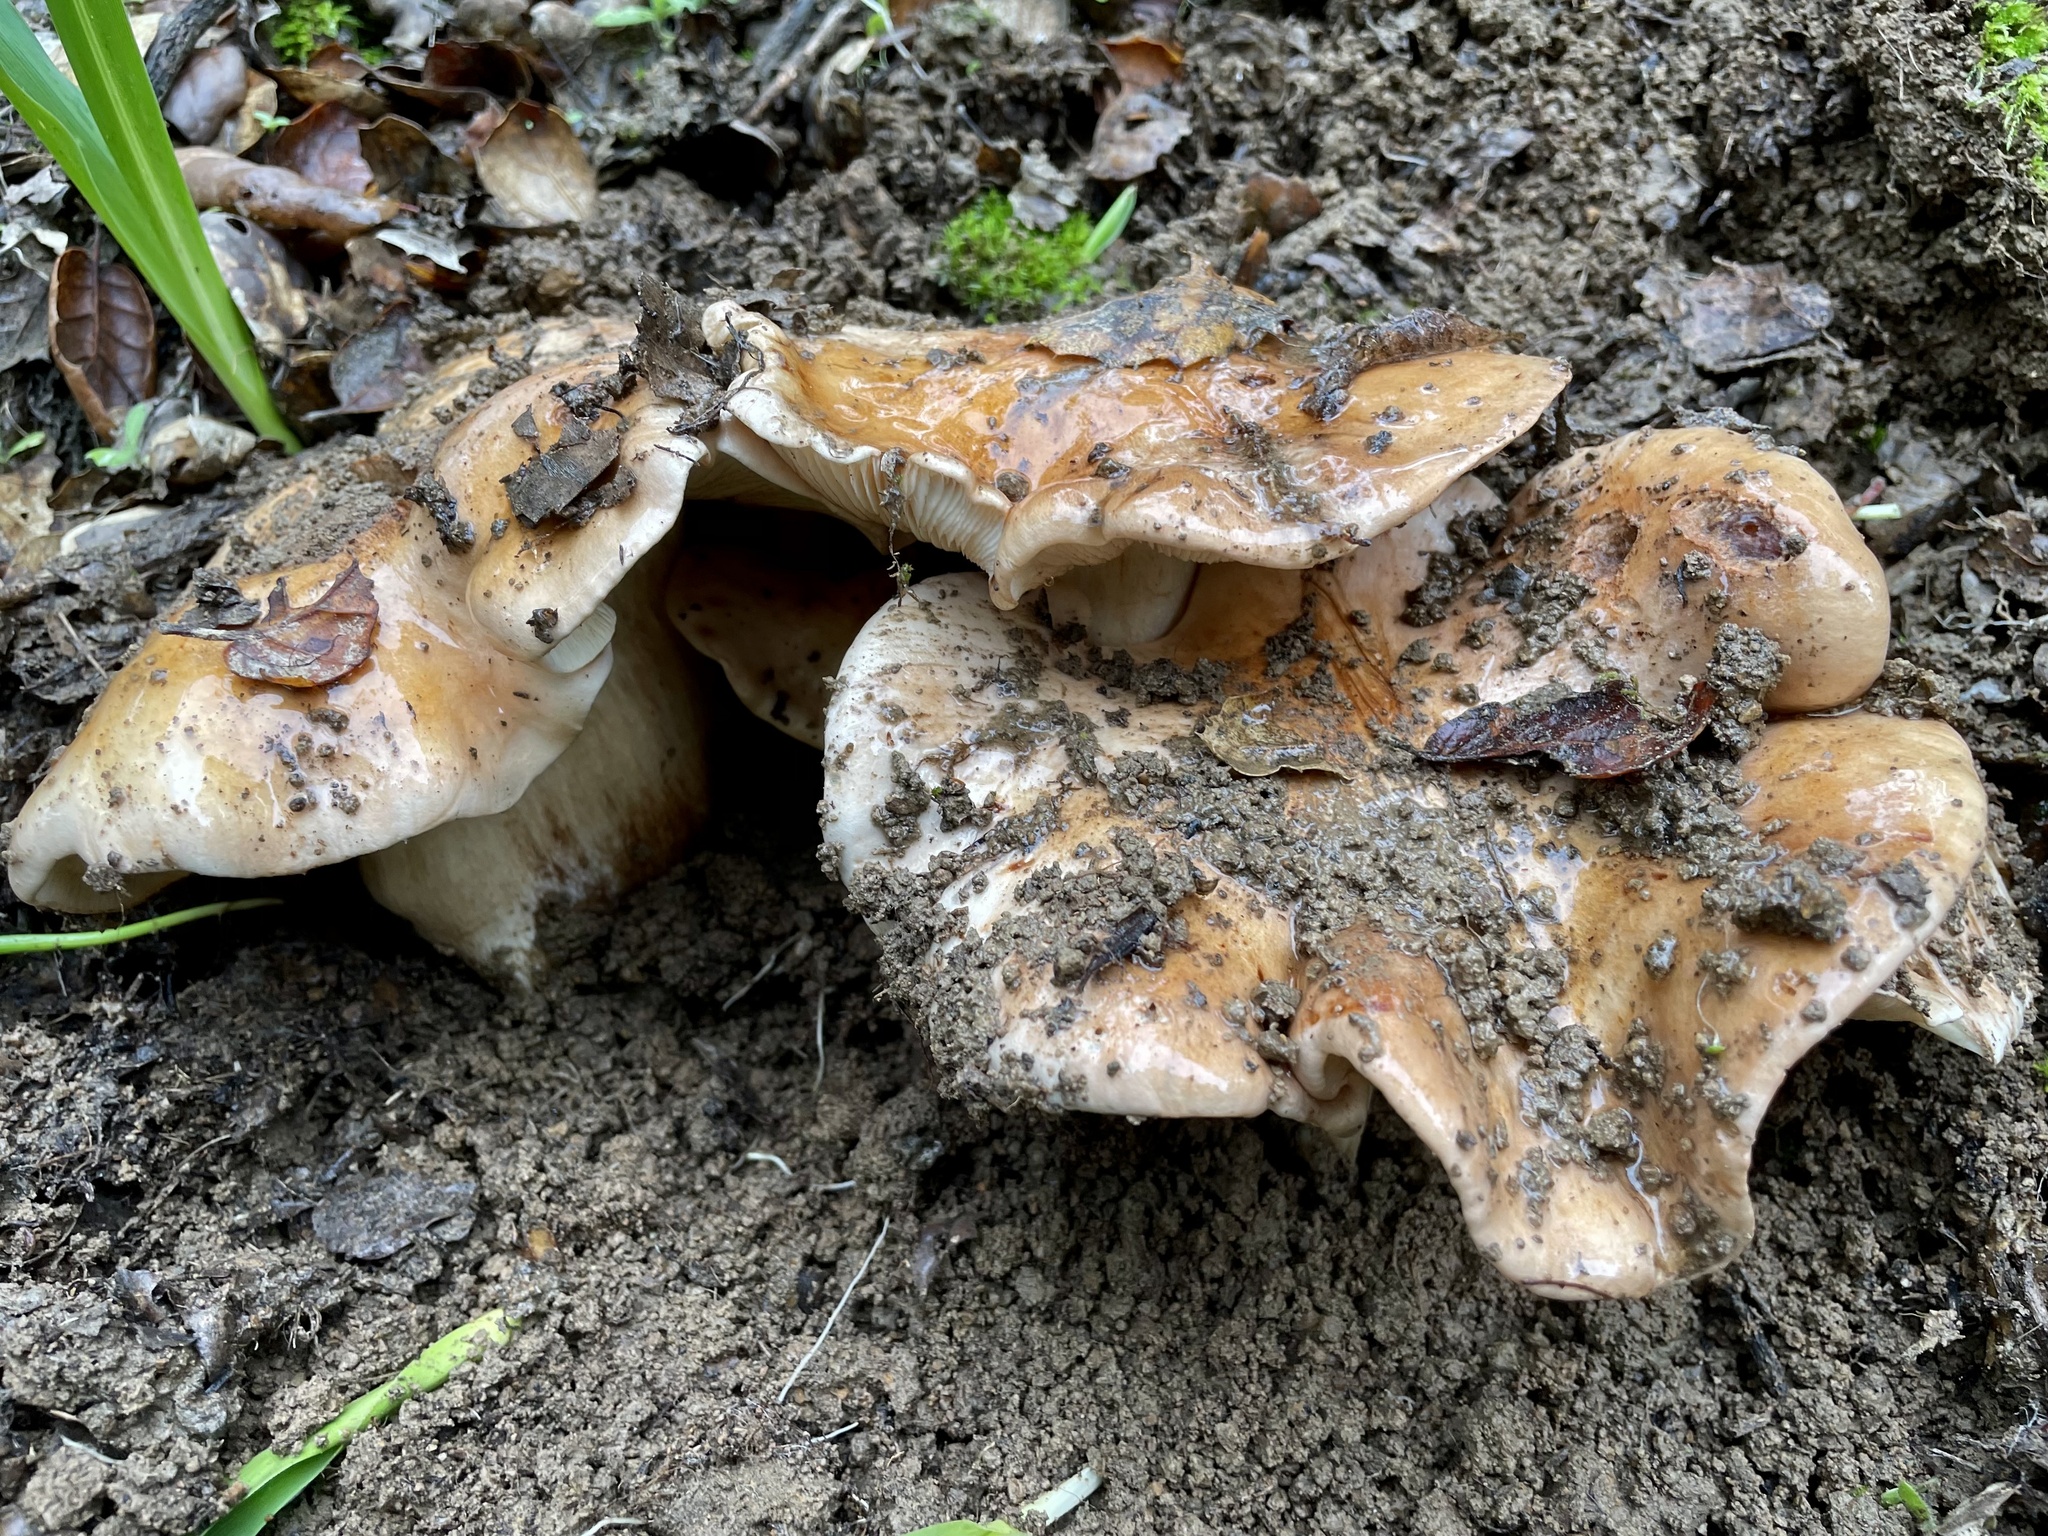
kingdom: Fungi
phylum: Basidiomycota
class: Agaricomycetes
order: Agaricales
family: Tricholomataceae
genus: Melanoleuca
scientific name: Melanoleuca dryophila
